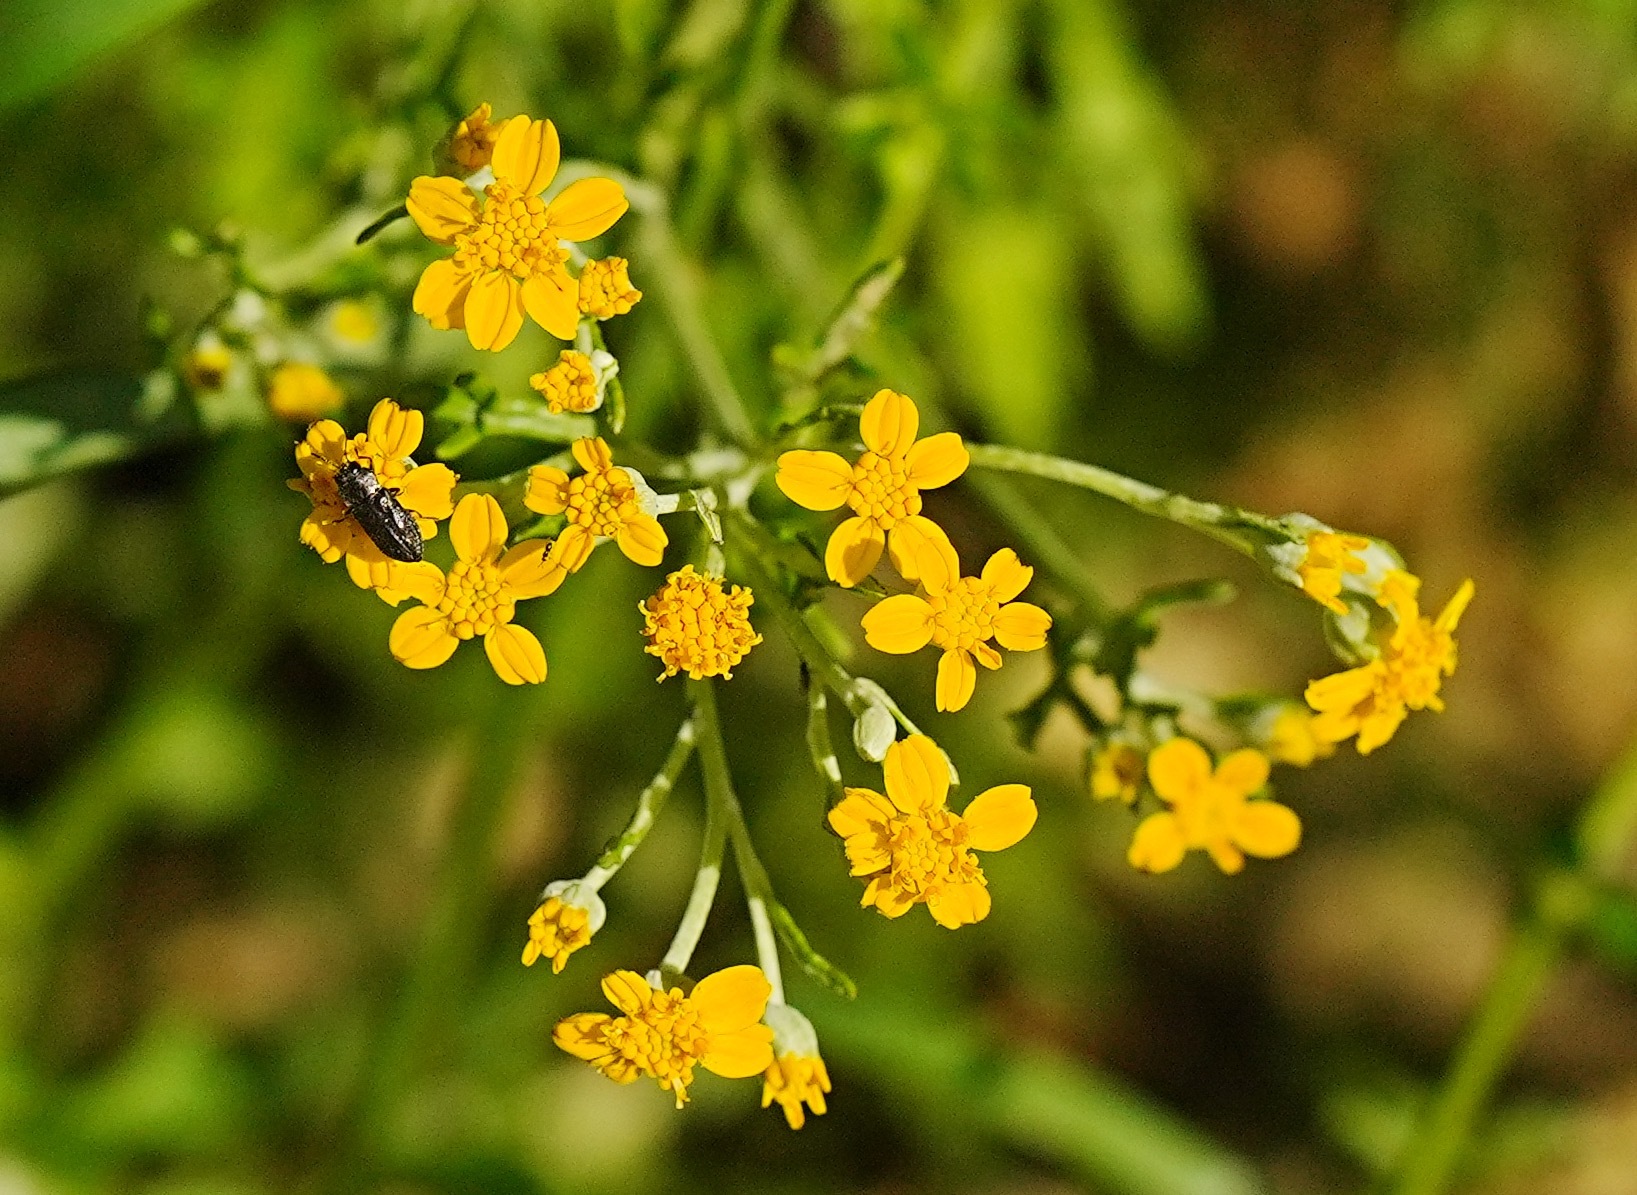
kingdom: Plantae
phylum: Tracheophyta
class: Magnoliopsida
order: Asterales
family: Asteraceae
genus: Eriophyllum
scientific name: Eriophyllum confertiflorum
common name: Golden-yarrow
